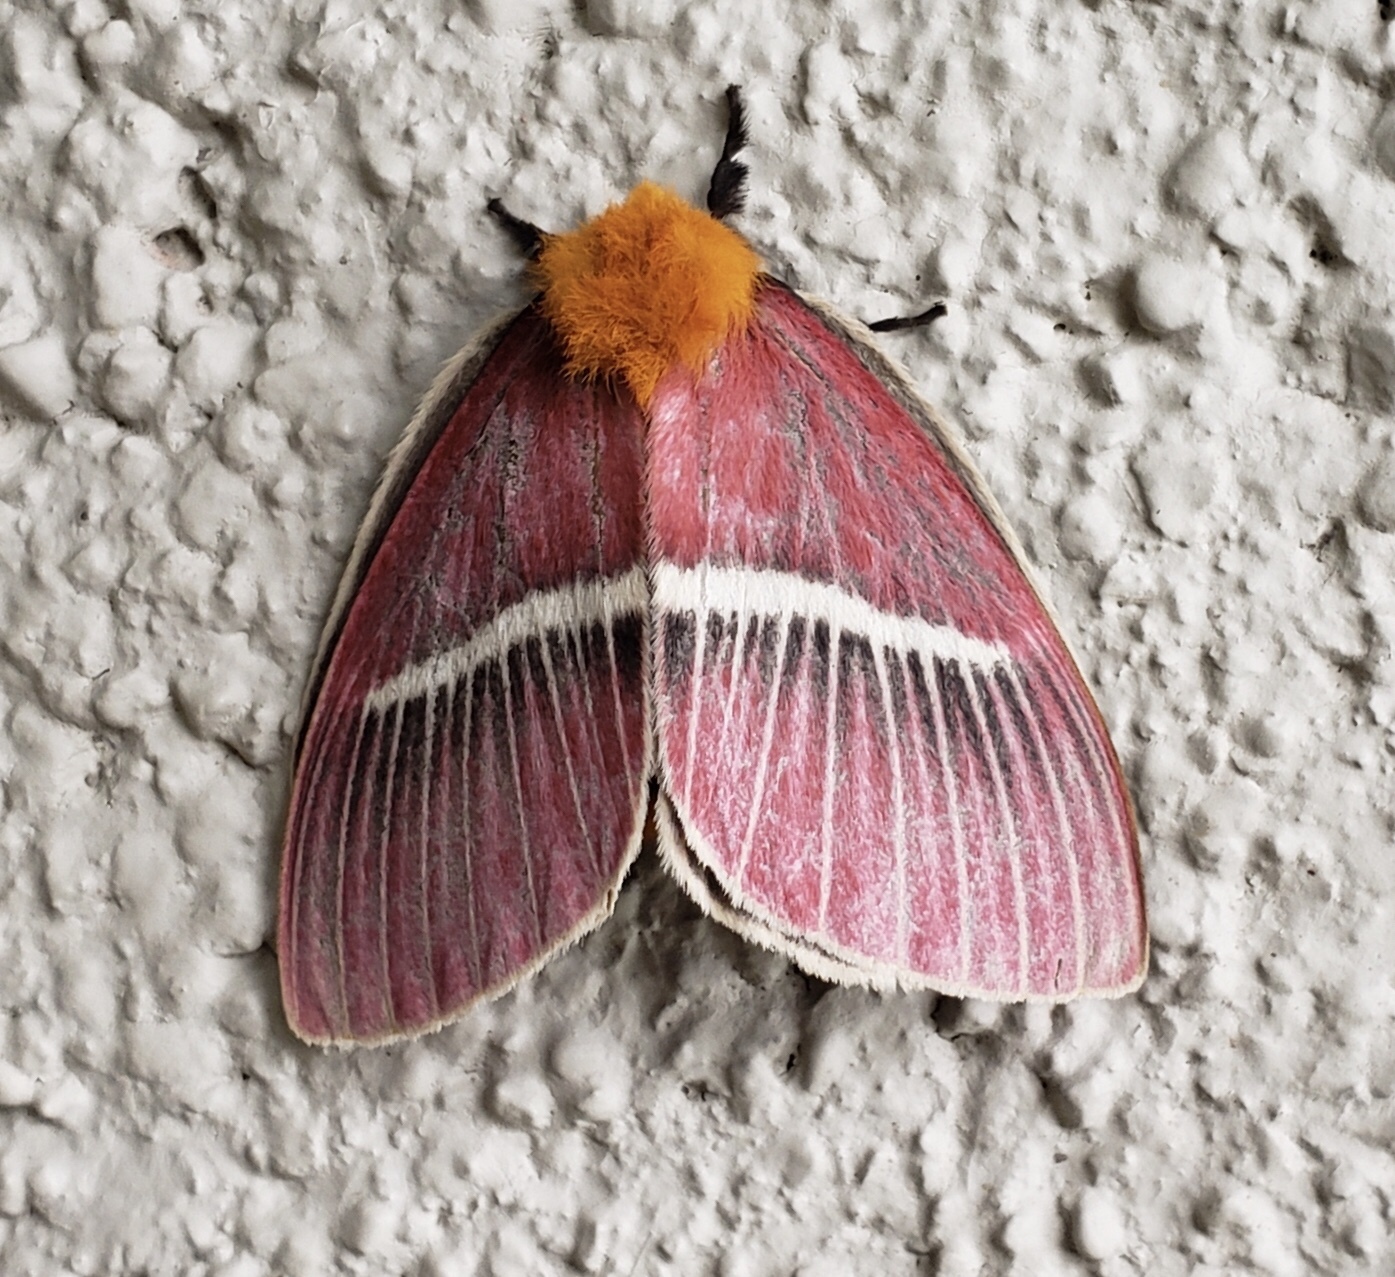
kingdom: Animalia
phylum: Arthropoda
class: Insecta
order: Lepidoptera
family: Saturniidae
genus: Pseudodirphia
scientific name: Pseudodirphia menander
